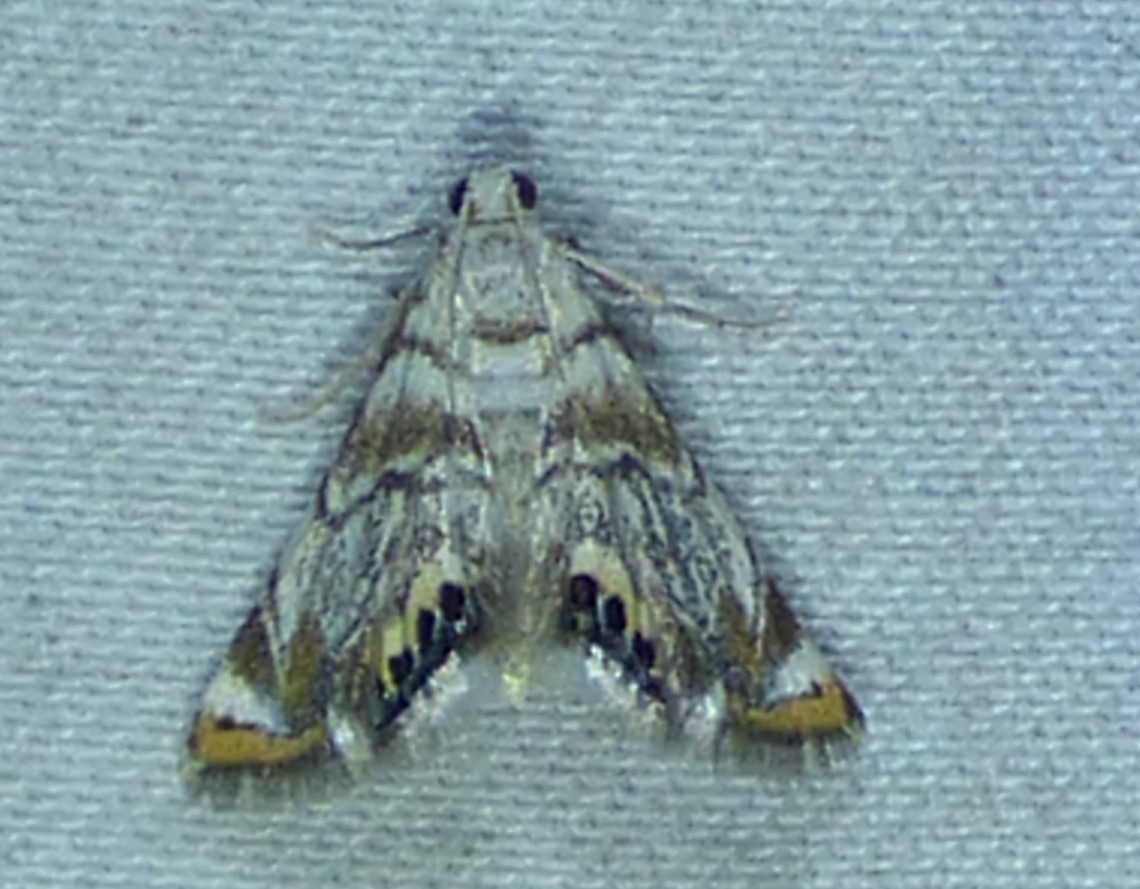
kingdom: Animalia
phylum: Arthropoda
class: Insecta
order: Lepidoptera
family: Crambidae
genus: Eoparargyractis
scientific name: Eoparargyractis irroratalis
